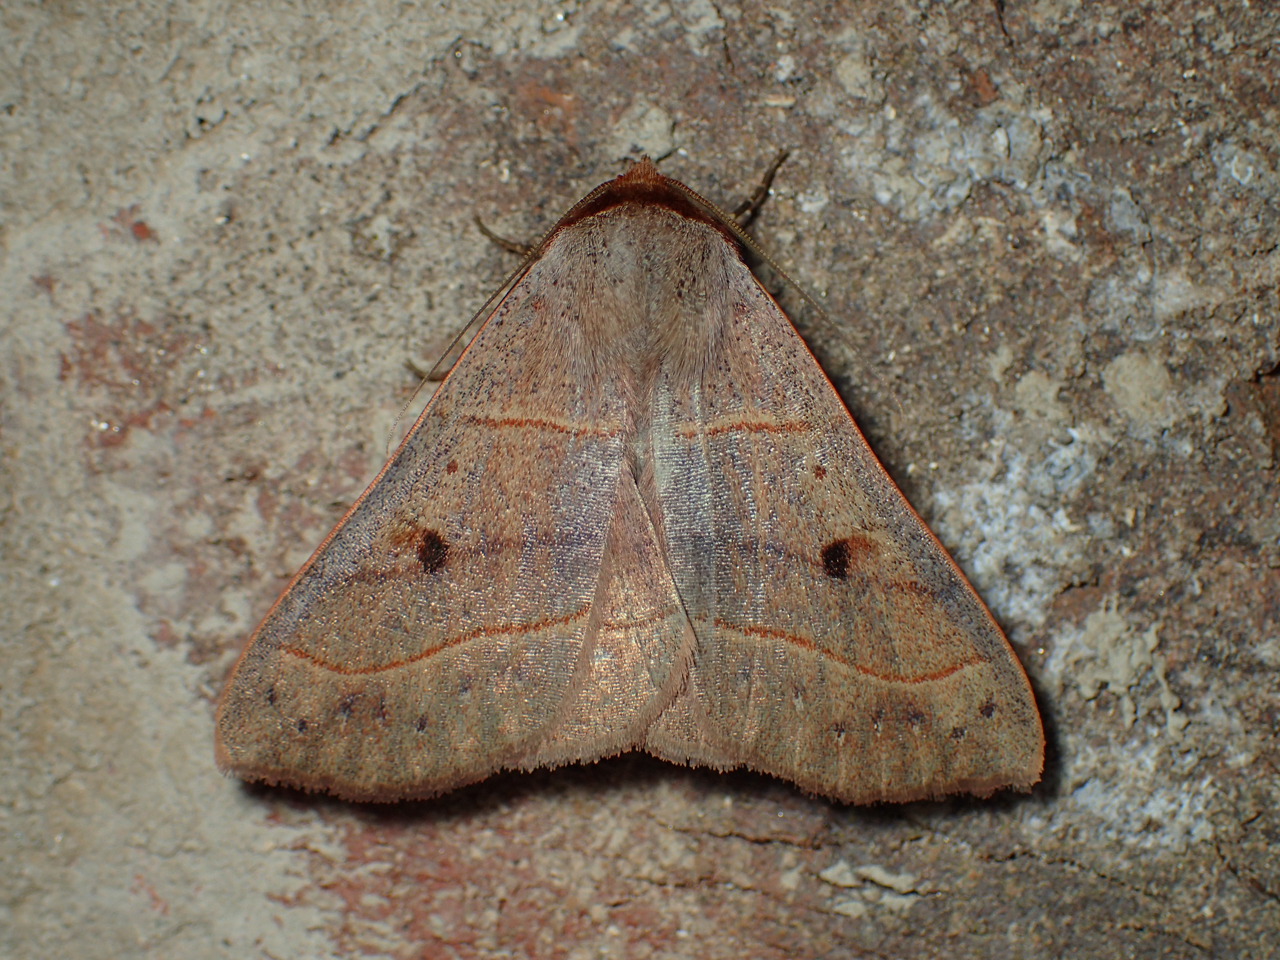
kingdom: Animalia
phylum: Arthropoda
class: Insecta
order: Lepidoptera
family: Erebidae
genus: Panopoda
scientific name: Panopoda rufimargo
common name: Red-lined panopoda moth
